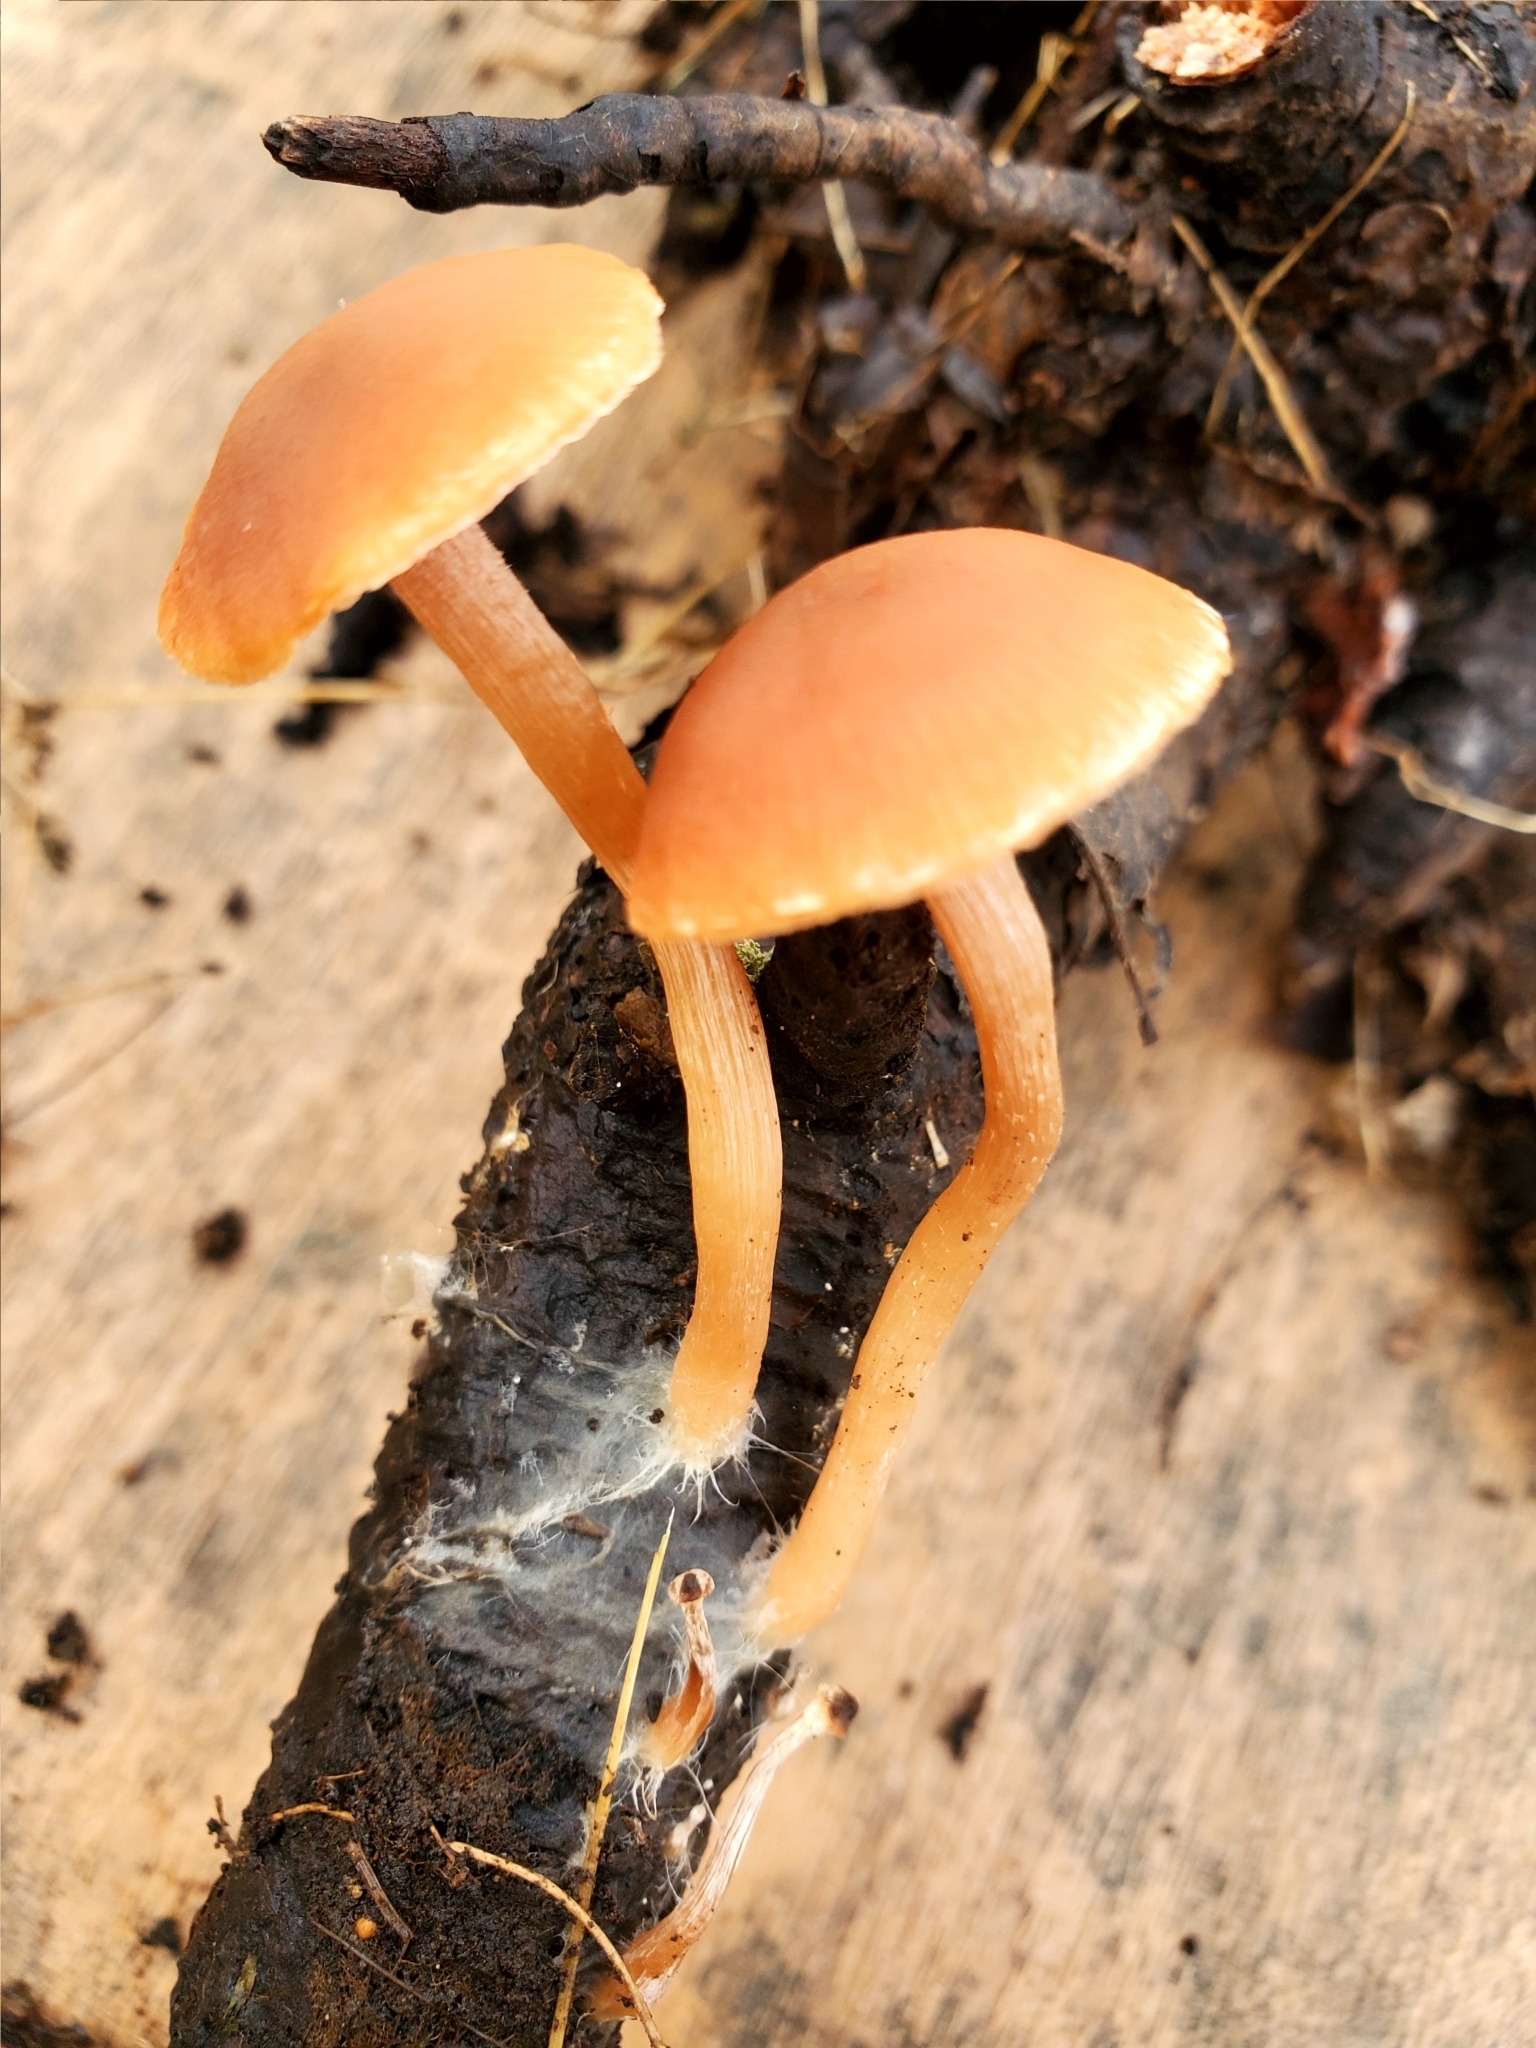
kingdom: Fungi
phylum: Basidiomycota
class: Agaricomycetes
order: Agaricales
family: Tubariaceae
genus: Tubaria
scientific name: Tubaria furfuracea
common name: Scurfy twiglet
